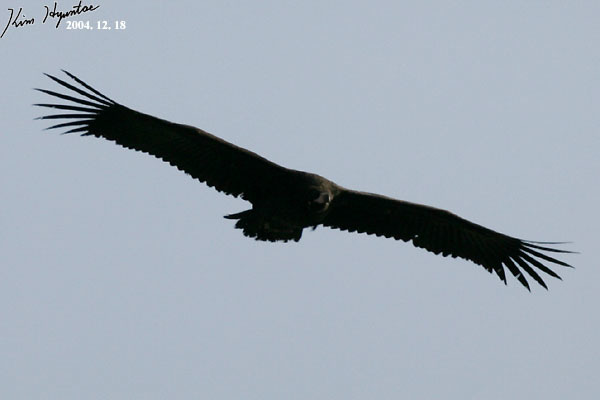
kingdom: Animalia
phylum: Chordata
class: Aves
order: Accipitriformes
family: Accipitridae
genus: Aegypius
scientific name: Aegypius monachus
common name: Cinereous vulture
